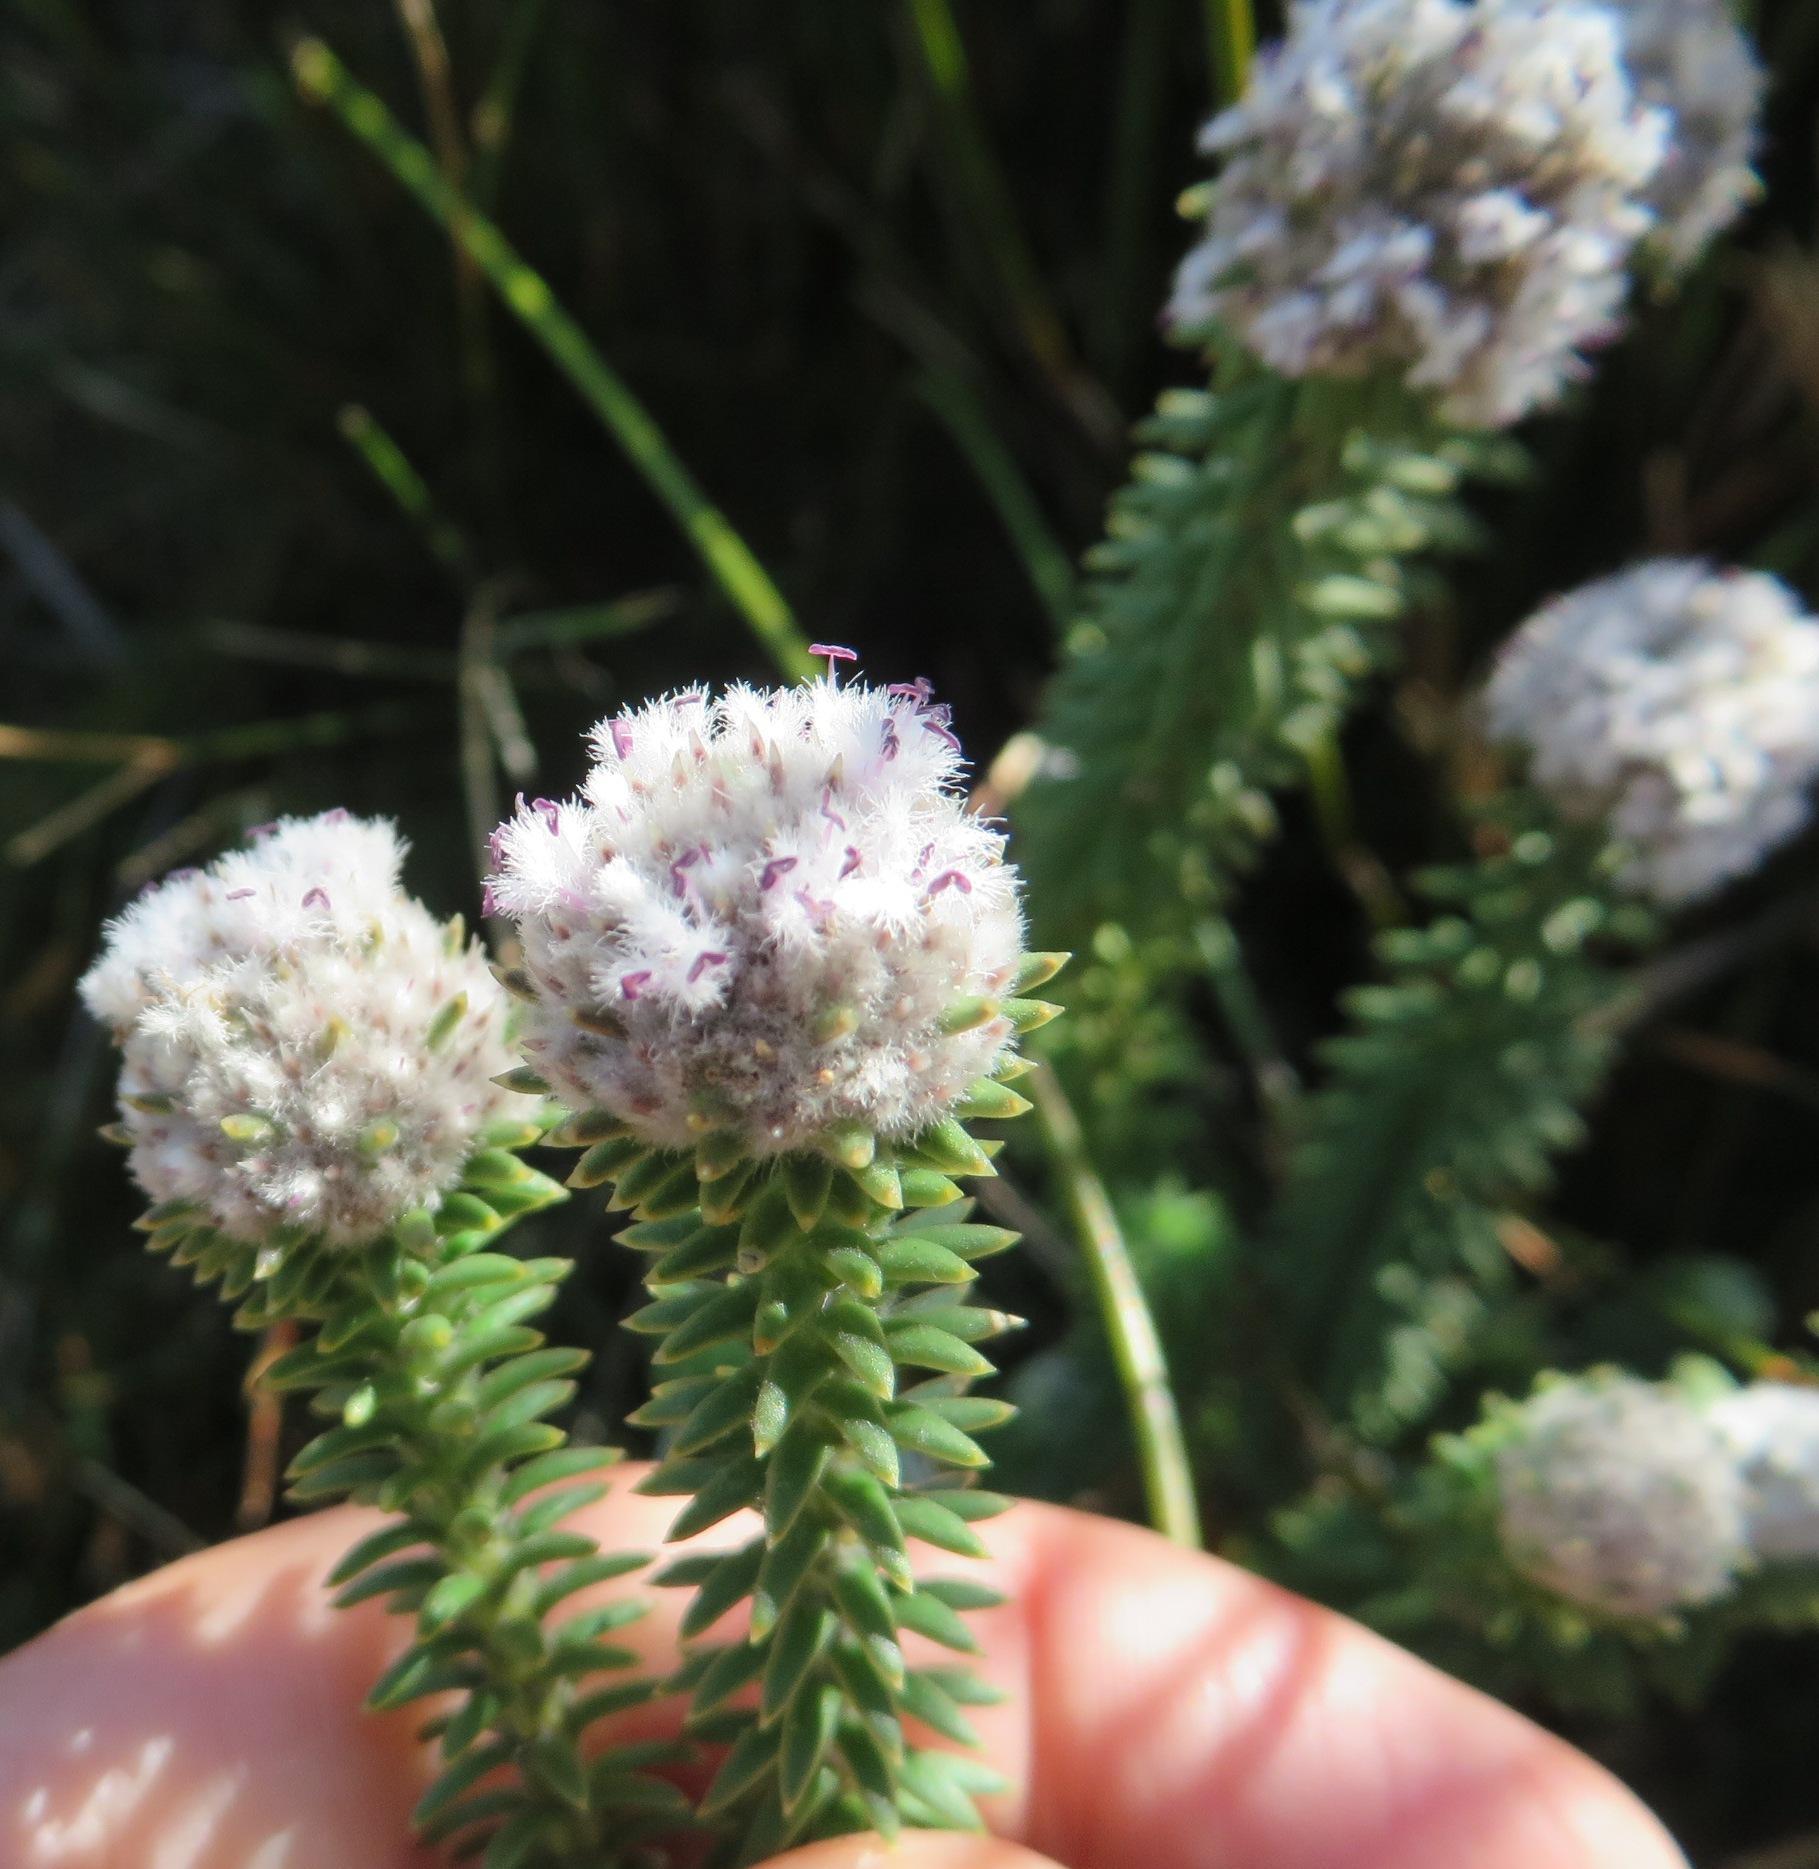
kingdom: Plantae
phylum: Tracheophyta
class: Magnoliopsida
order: Lamiales
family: Stilbaceae
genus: Kogelbergia
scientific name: Kogelbergia verticillata
